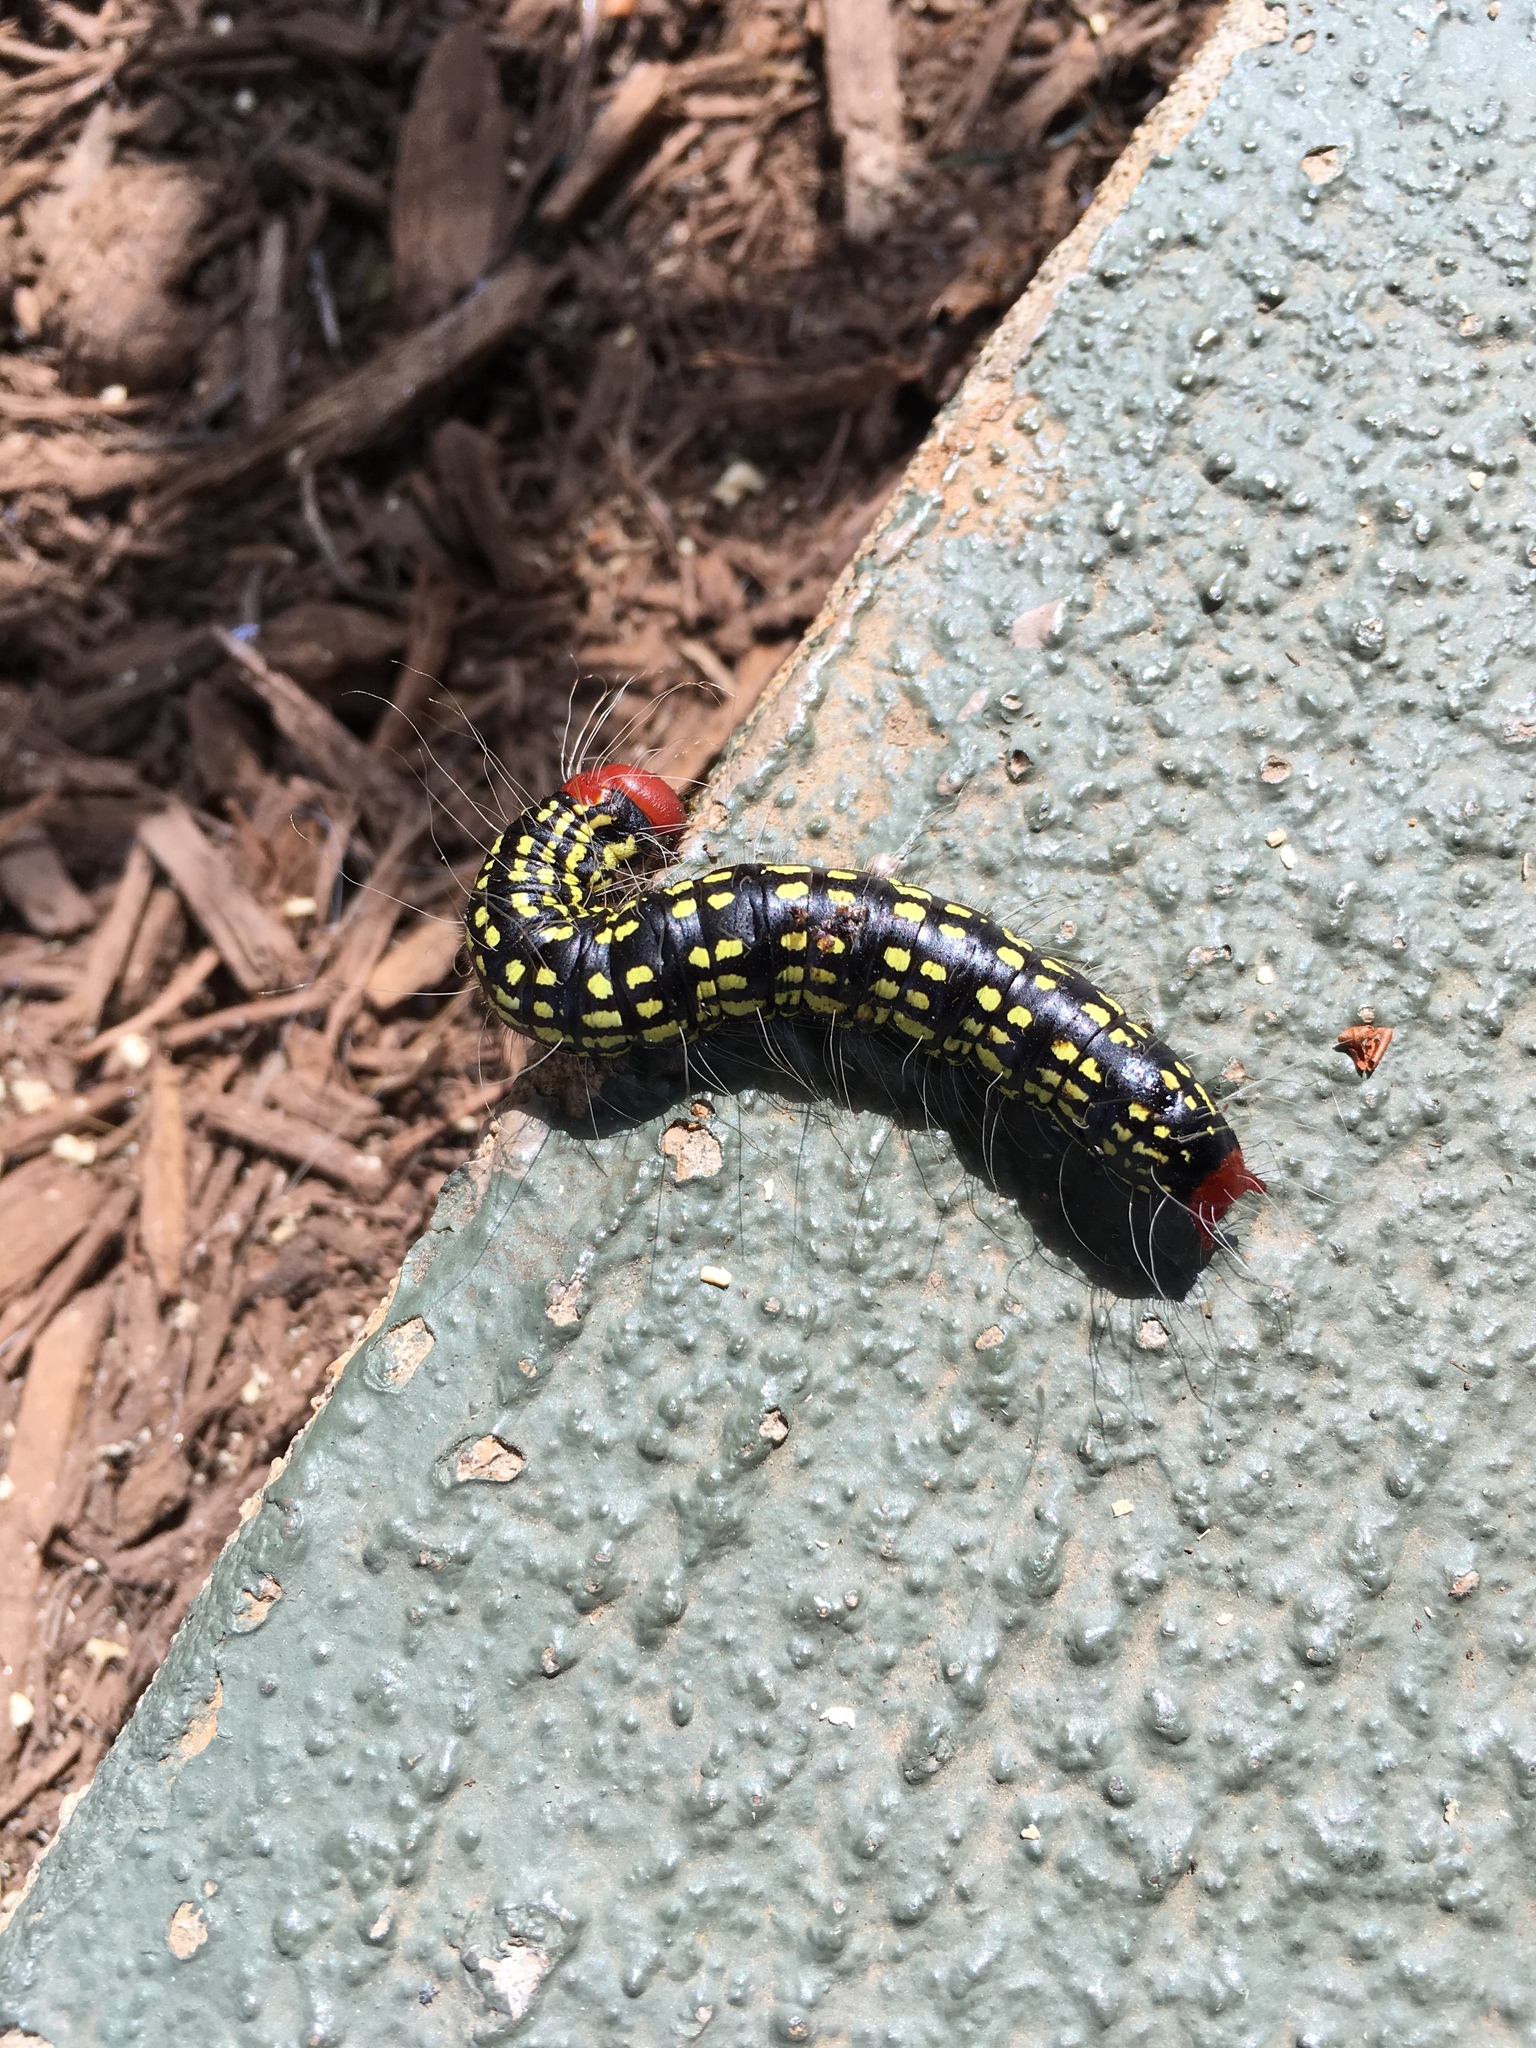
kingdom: Animalia
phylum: Arthropoda
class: Insecta
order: Lepidoptera
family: Notodontidae
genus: Datana
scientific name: Datana major
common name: Azalea caterpillar
